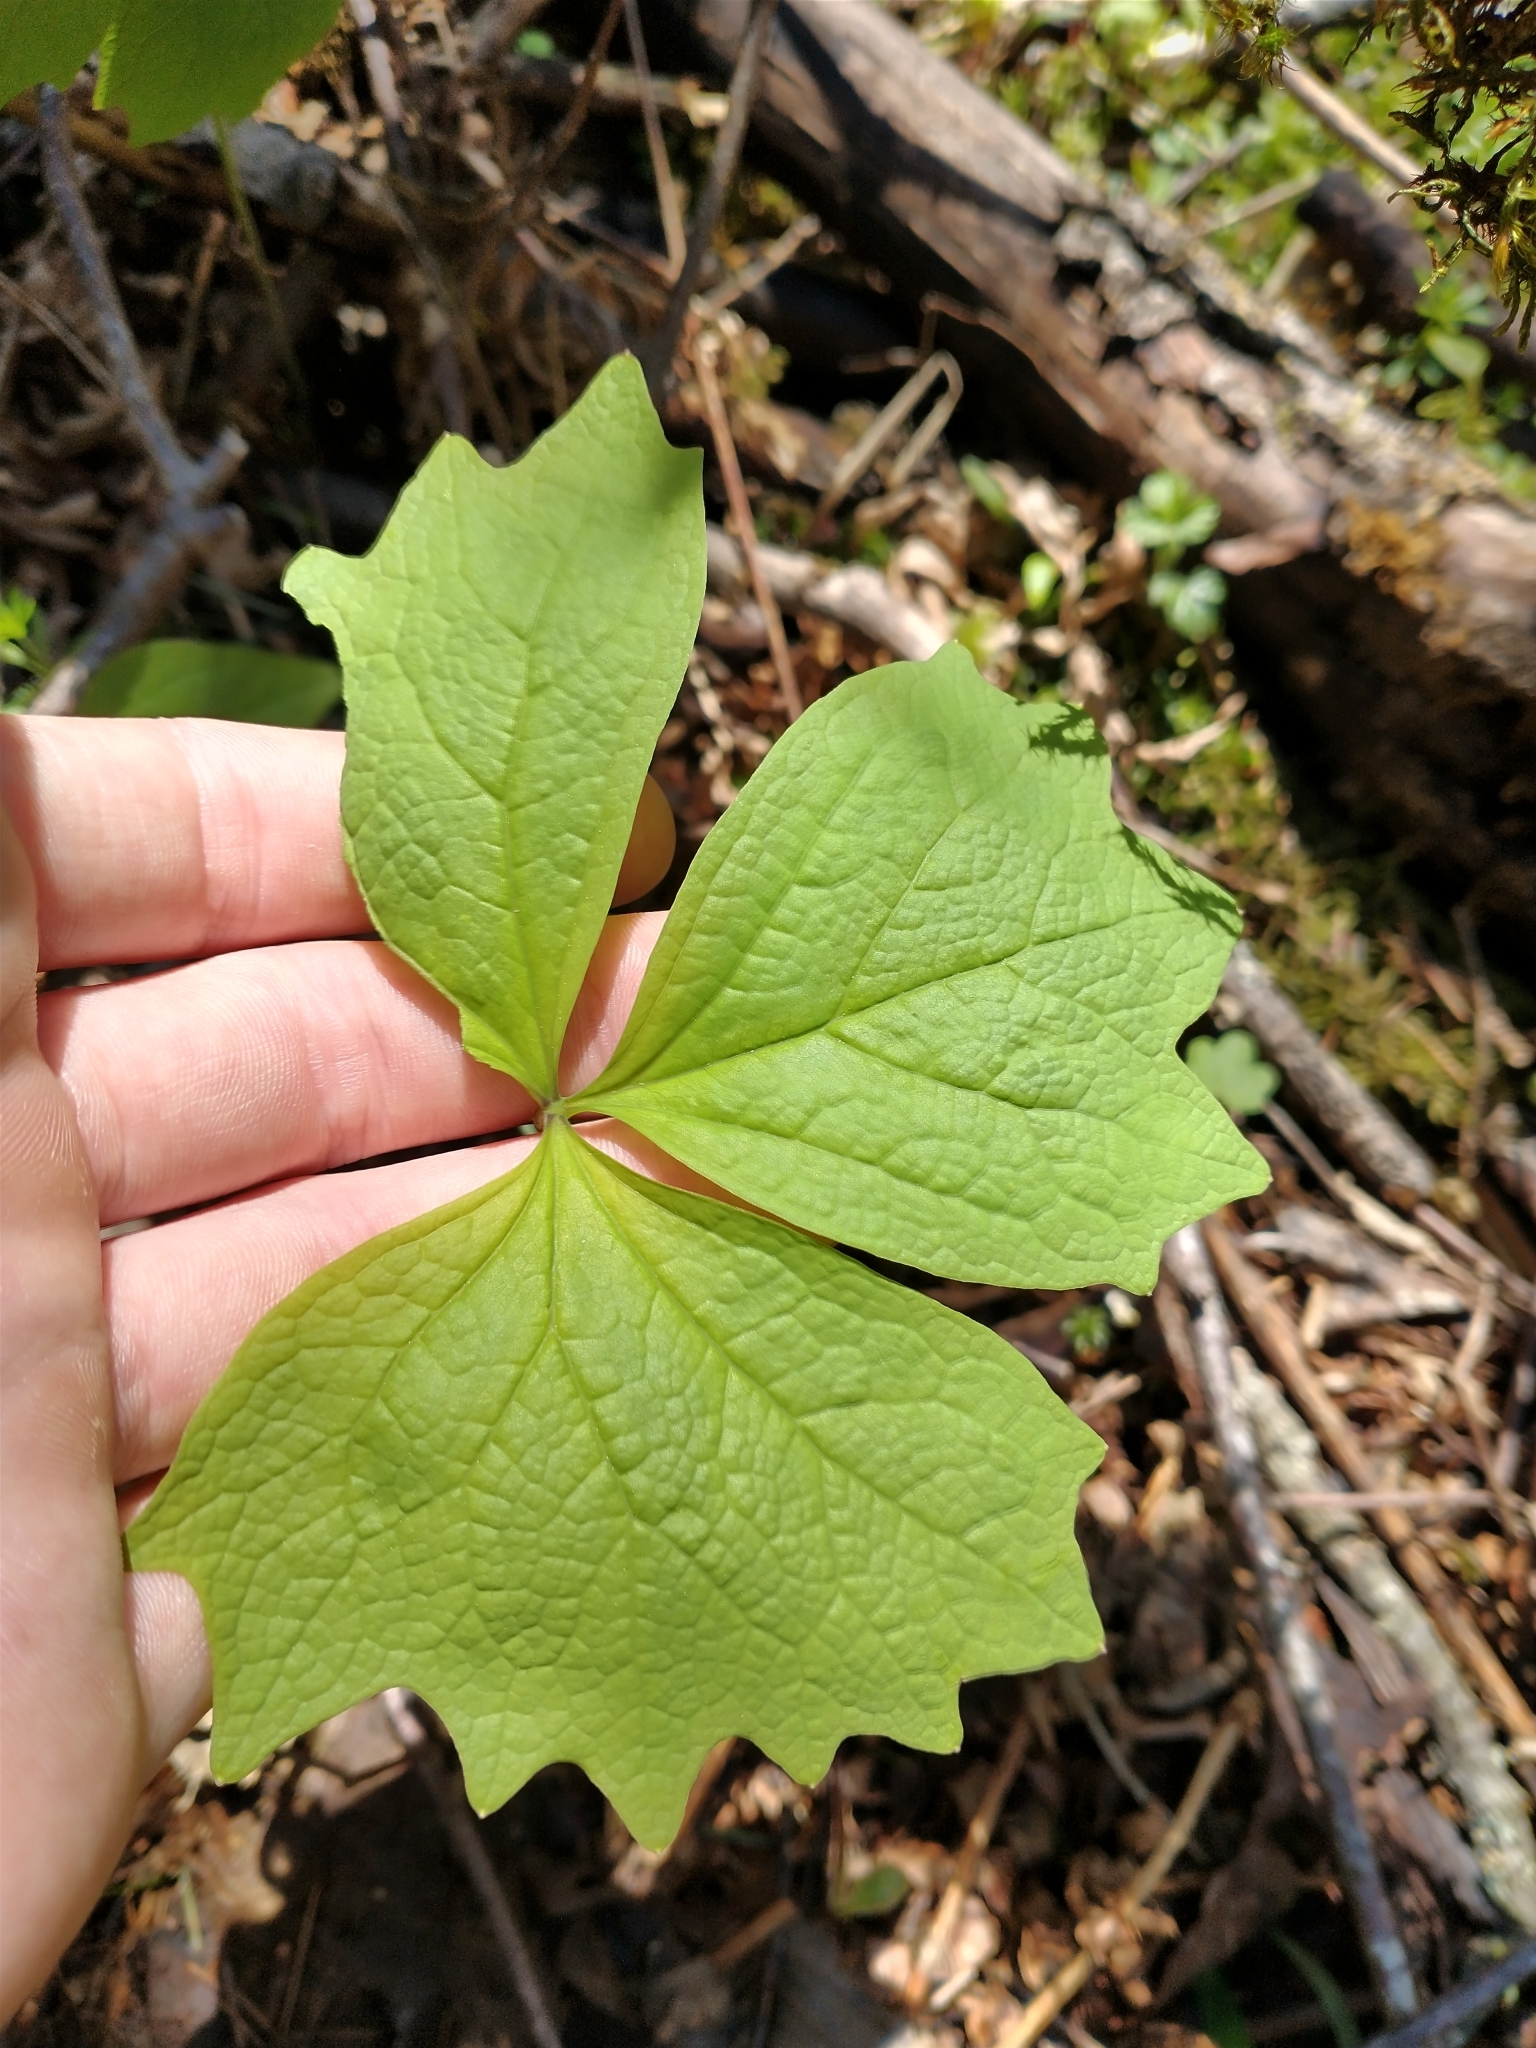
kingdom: Plantae
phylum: Tracheophyta
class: Magnoliopsida
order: Ranunculales
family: Berberidaceae
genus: Achlys
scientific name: Achlys triphylla
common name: Vanilla-leaf
